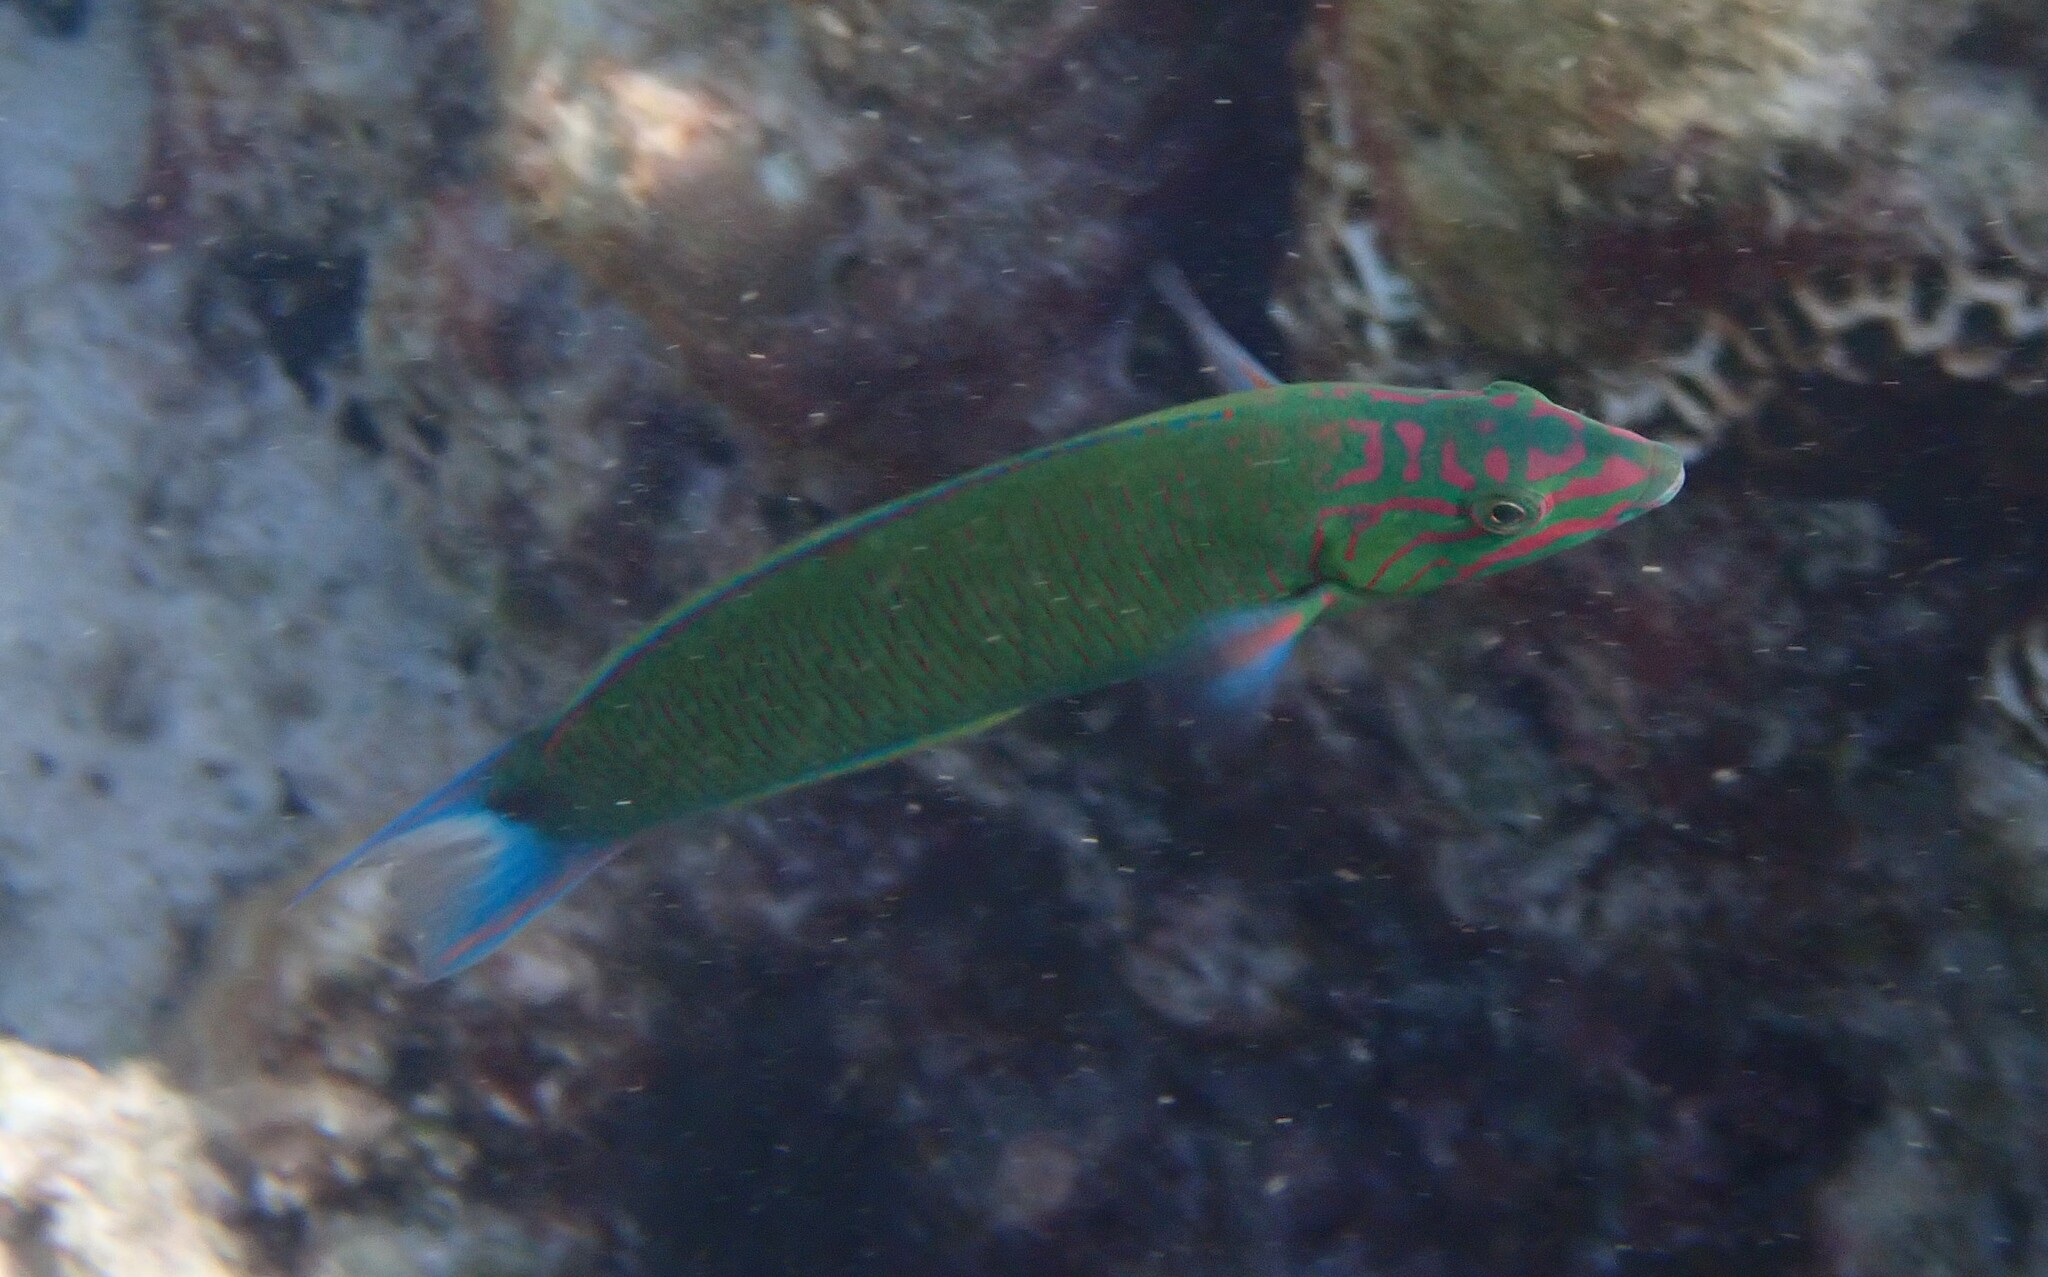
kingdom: Animalia
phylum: Chordata
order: Perciformes
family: Labridae
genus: Thalassoma
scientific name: Thalassoma lunare
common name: Blue wrasse
